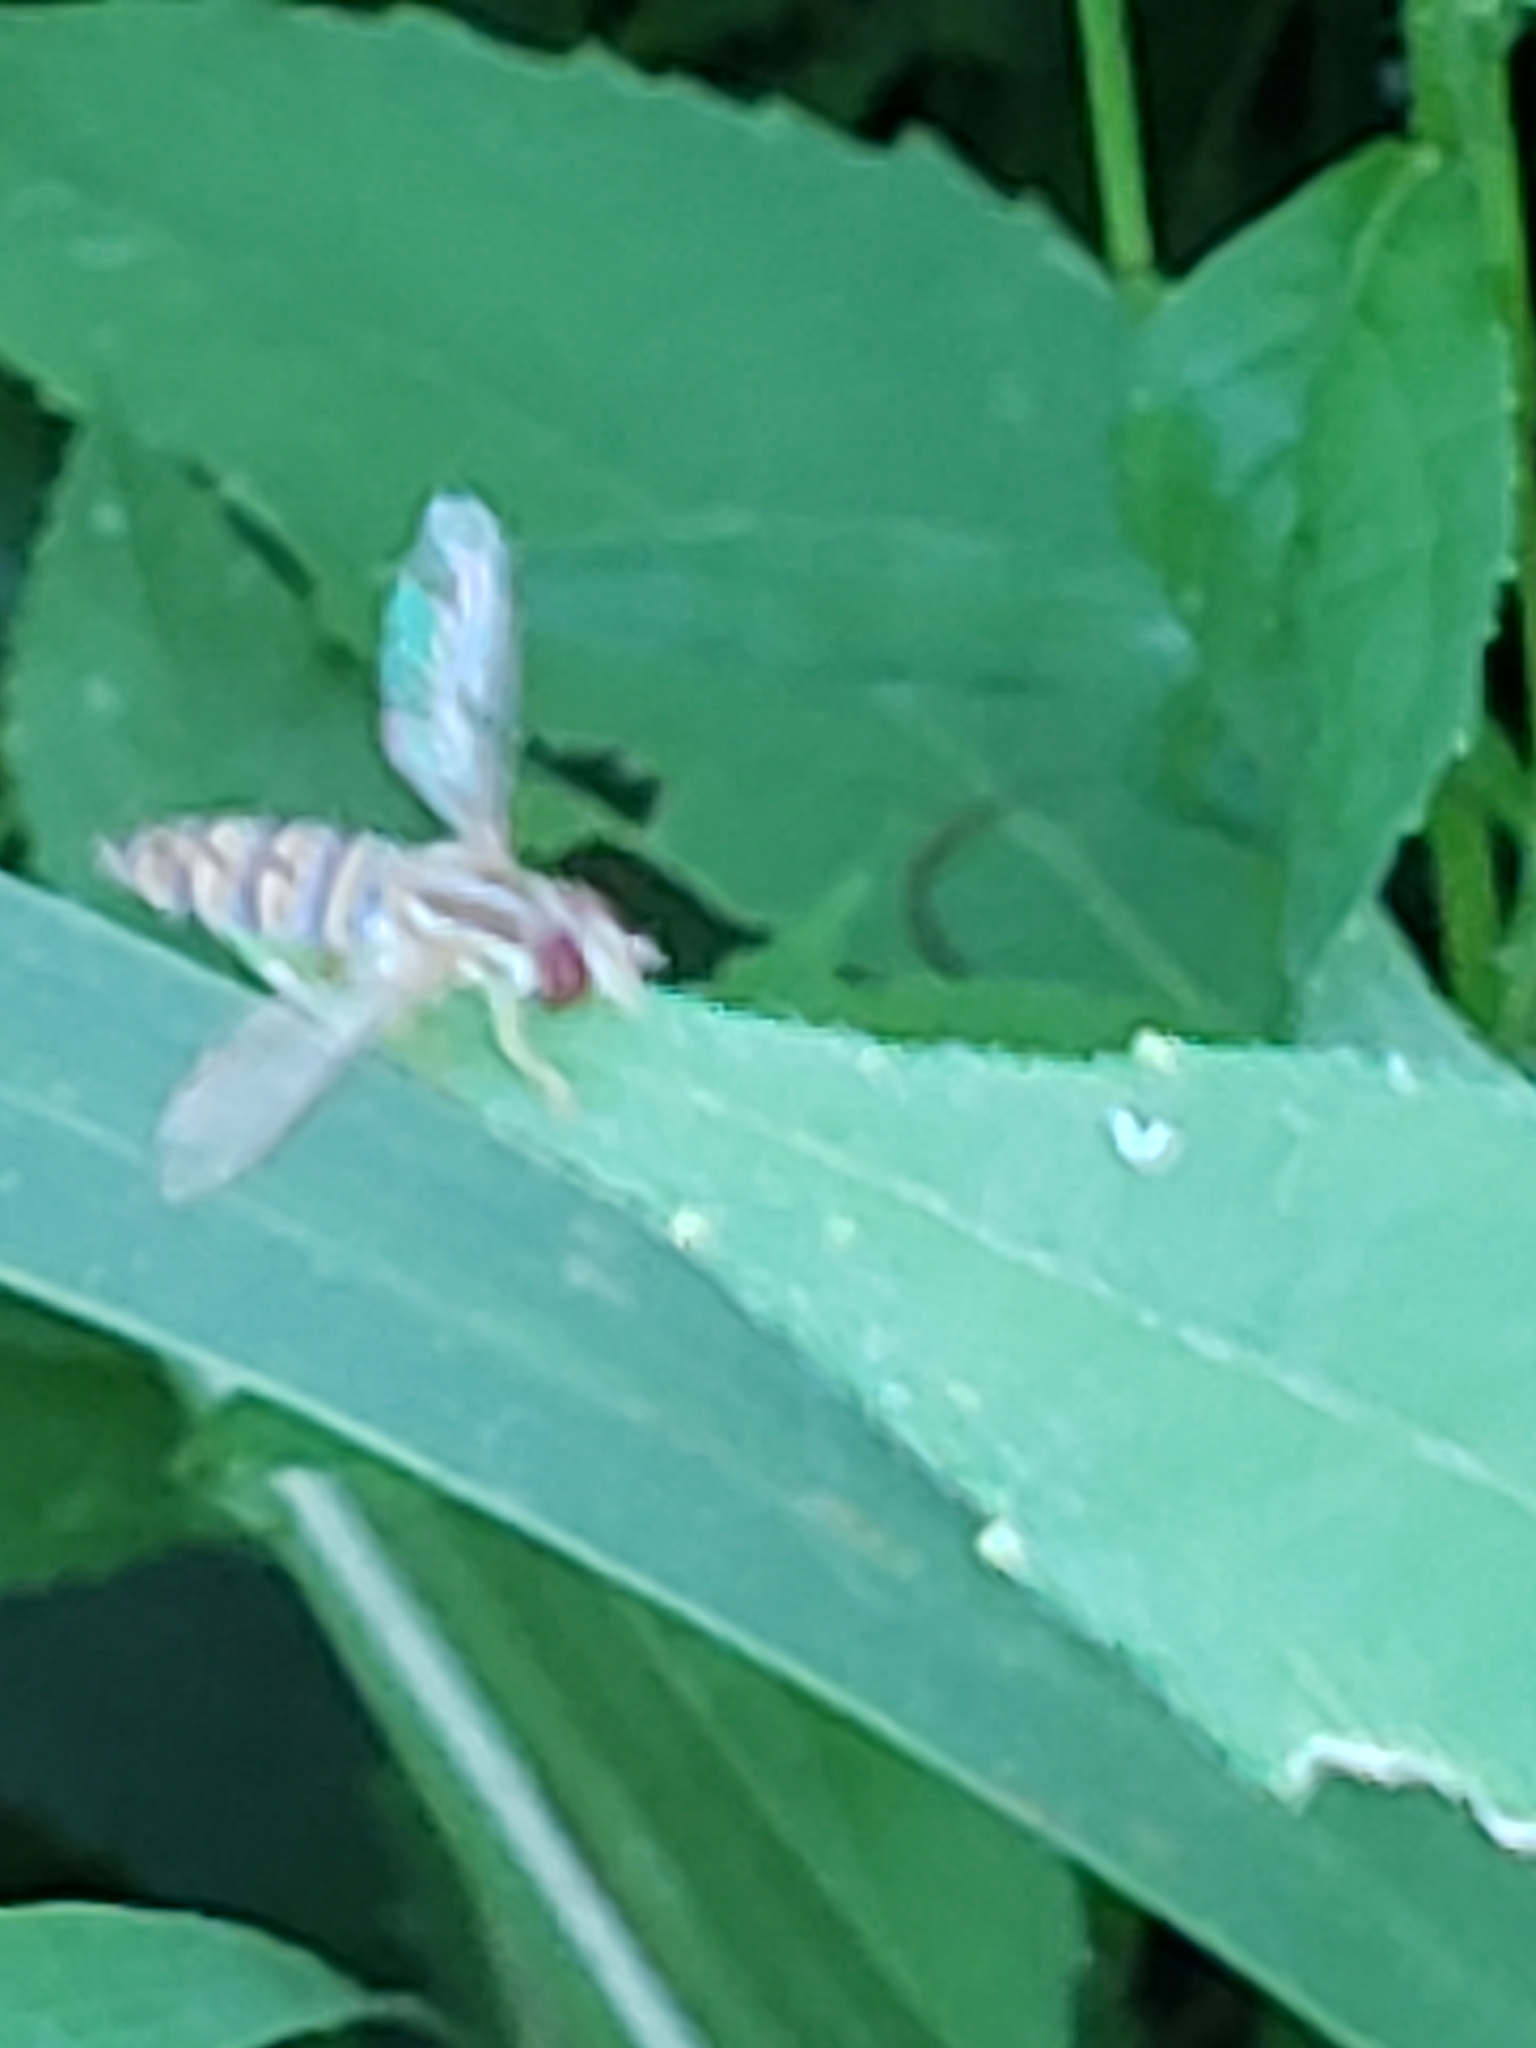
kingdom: Animalia
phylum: Arthropoda
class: Insecta
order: Diptera
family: Syrphidae
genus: Toxomerus
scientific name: Toxomerus politus
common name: Maize calligrapher
